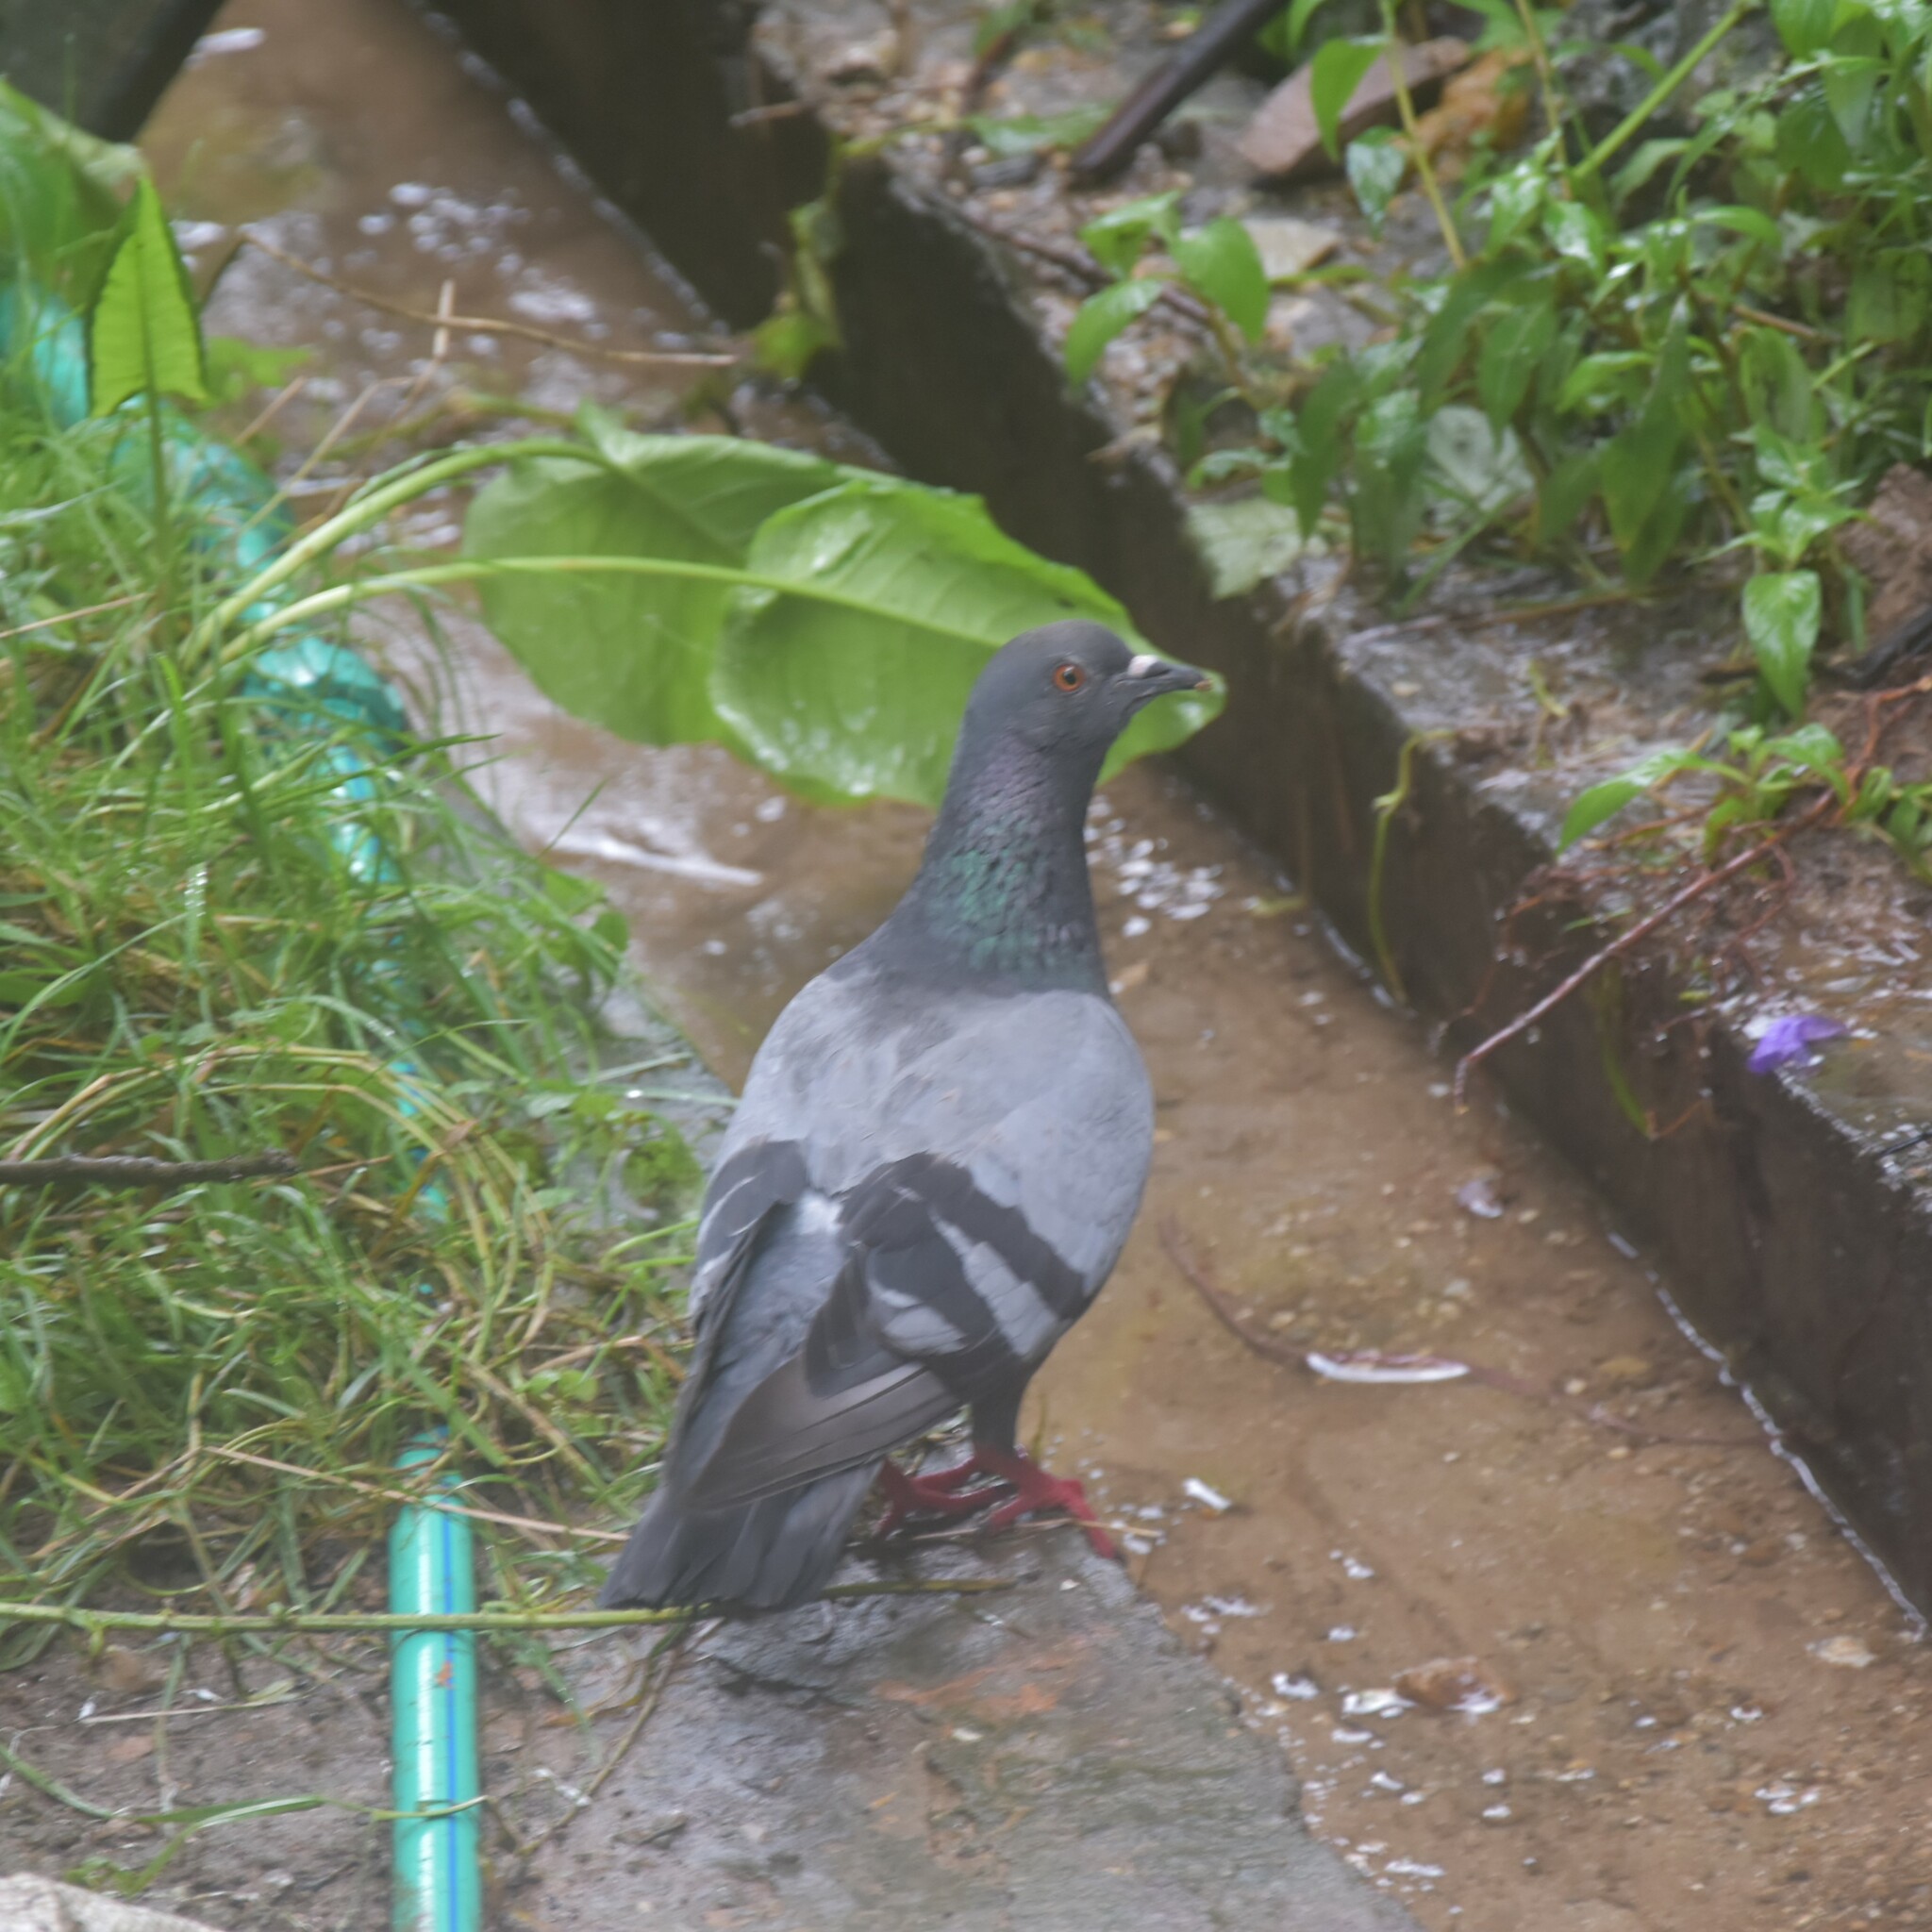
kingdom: Animalia
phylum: Chordata
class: Aves
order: Columbiformes
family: Columbidae
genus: Columba
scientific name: Columba livia
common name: Rock pigeon
